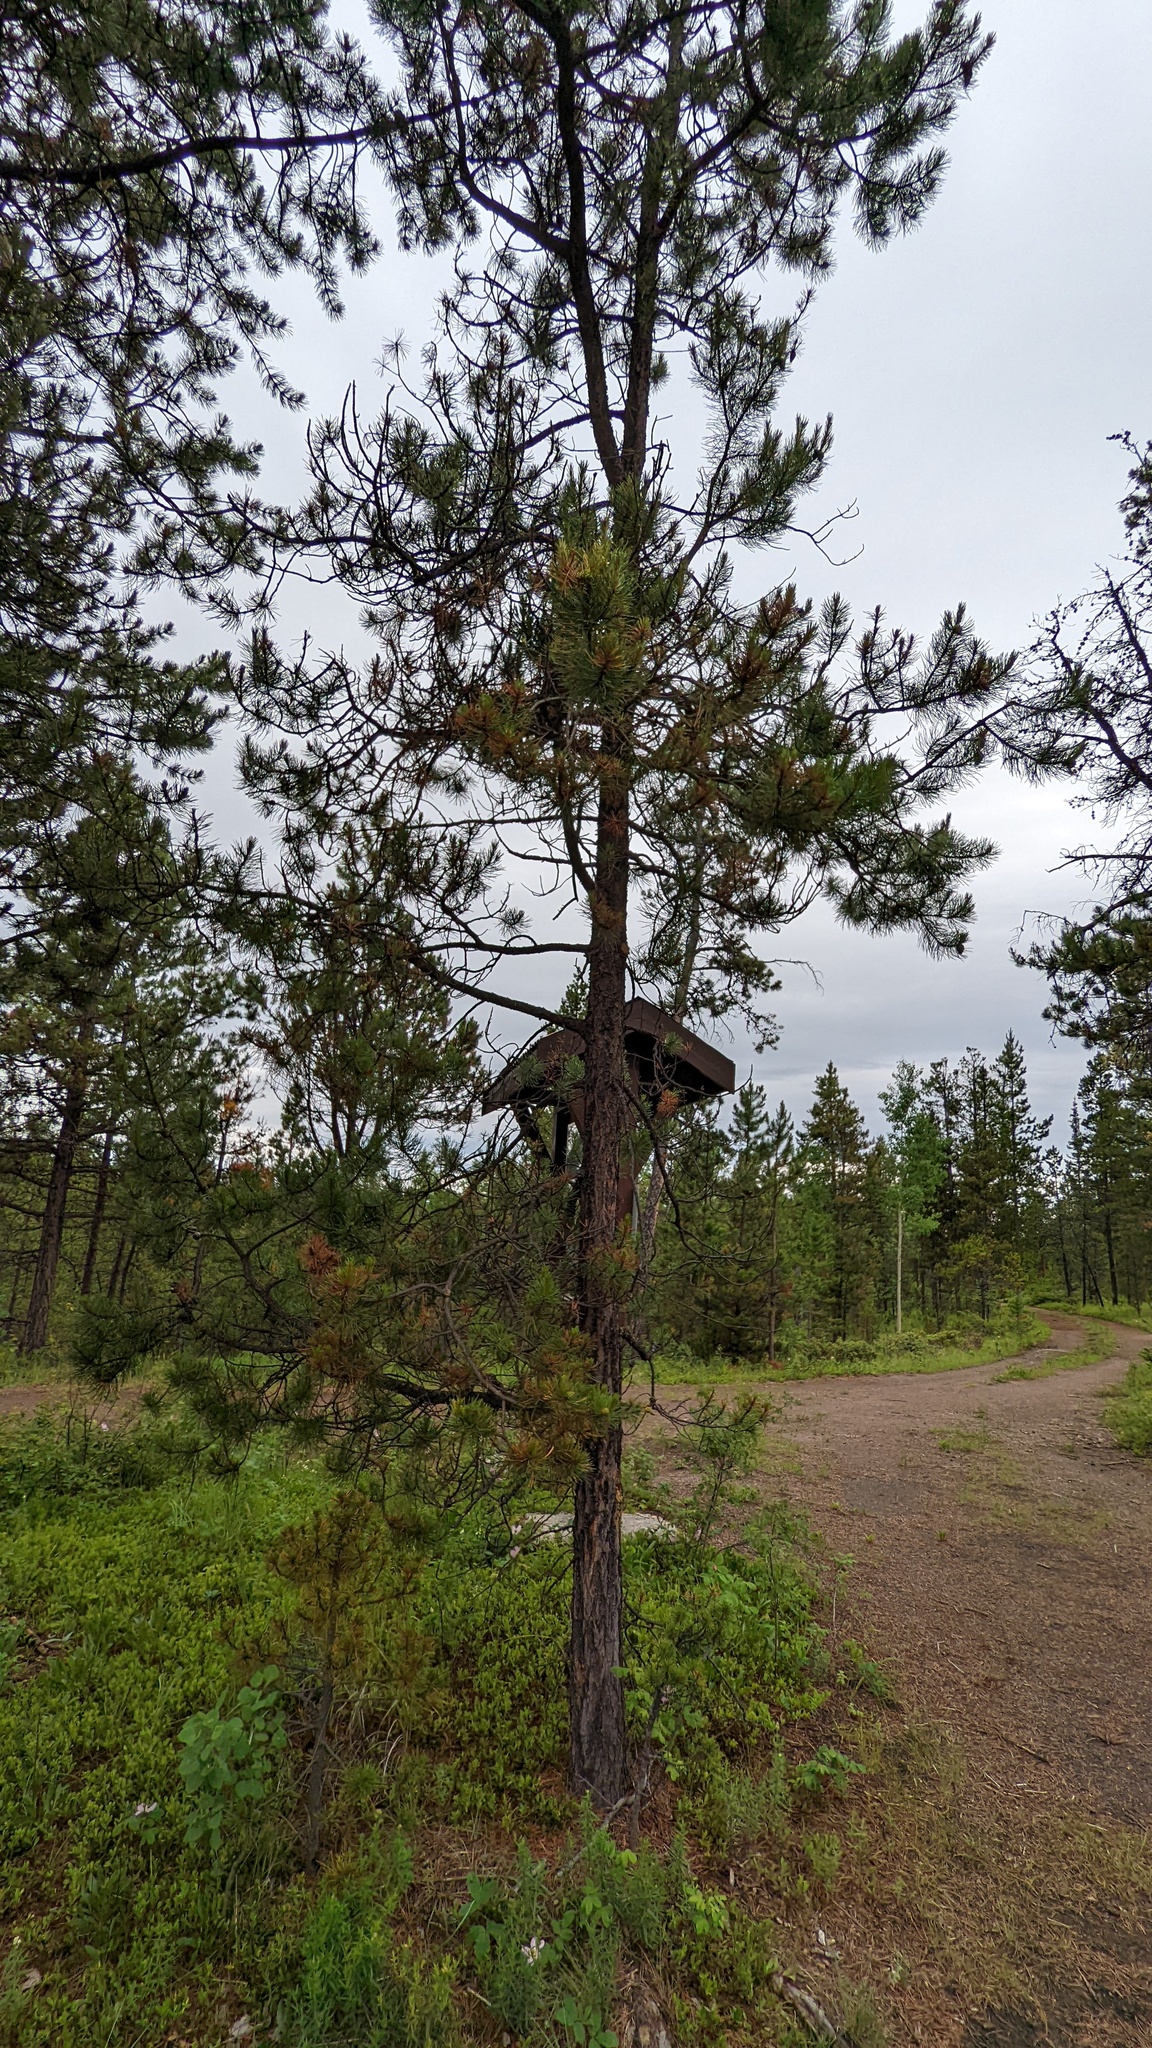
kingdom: Plantae
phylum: Tracheophyta
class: Pinopsida
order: Pinales
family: Pinaceae
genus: Pinus
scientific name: Pinus contorta
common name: Lodgepole pine
